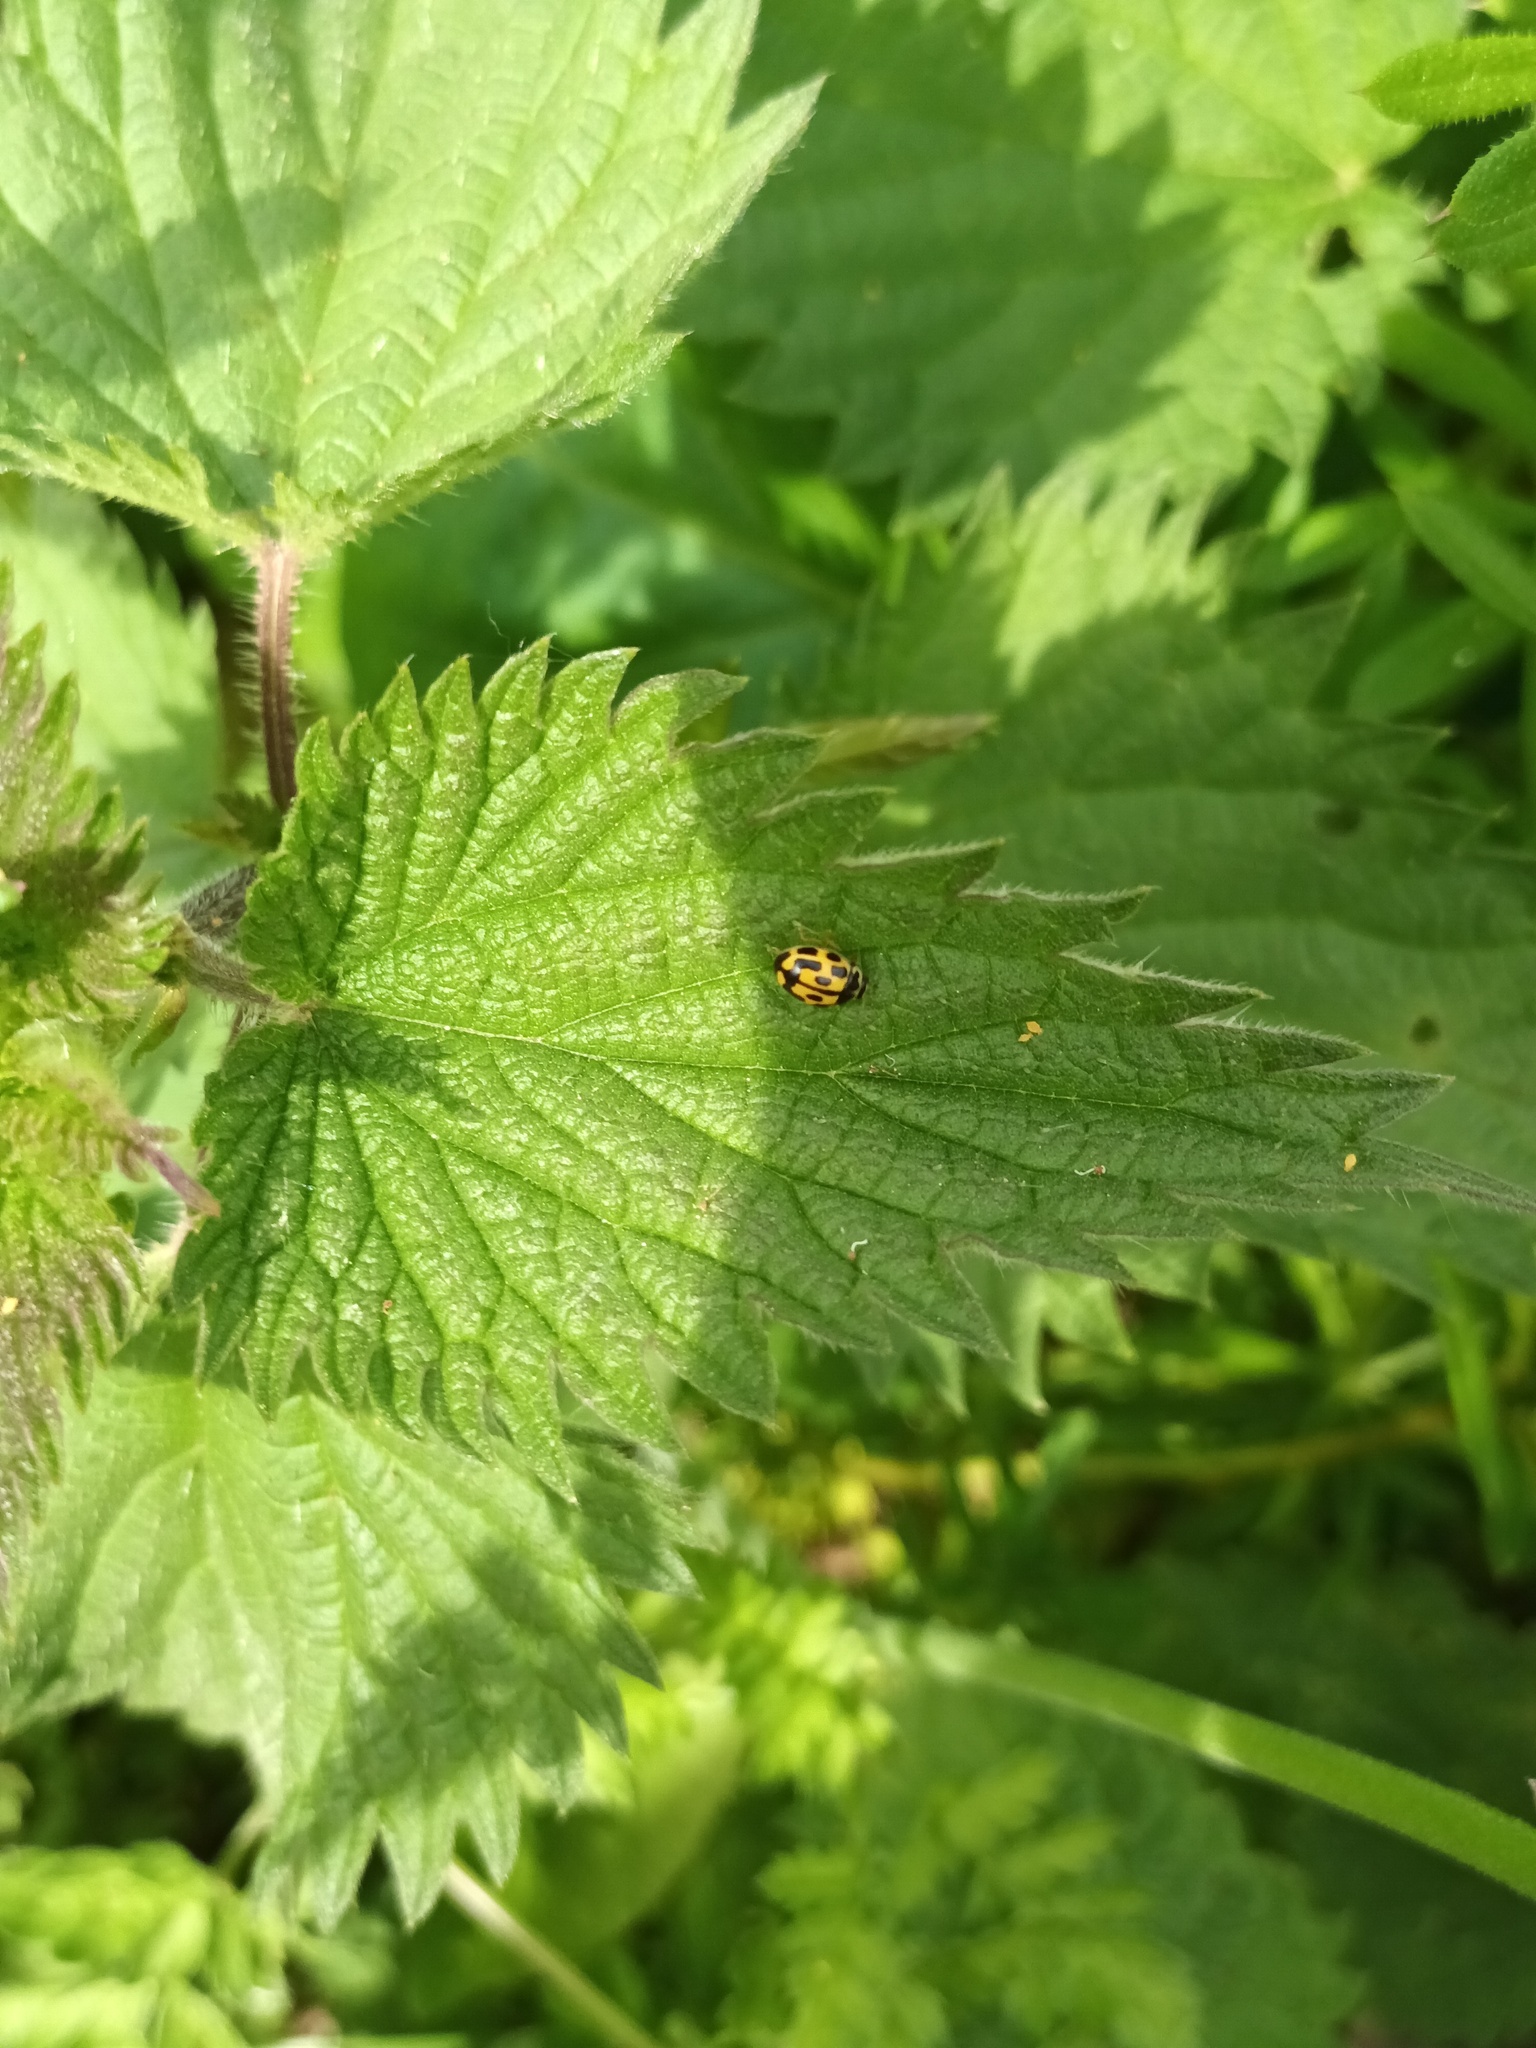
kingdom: Animalia
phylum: Arthropoda
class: Insecta
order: Coleoptera
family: Coccinellidae
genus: Propylaea
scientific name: Propylaea quatuordecimpunctata
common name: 14-spotted ladybird beetle
